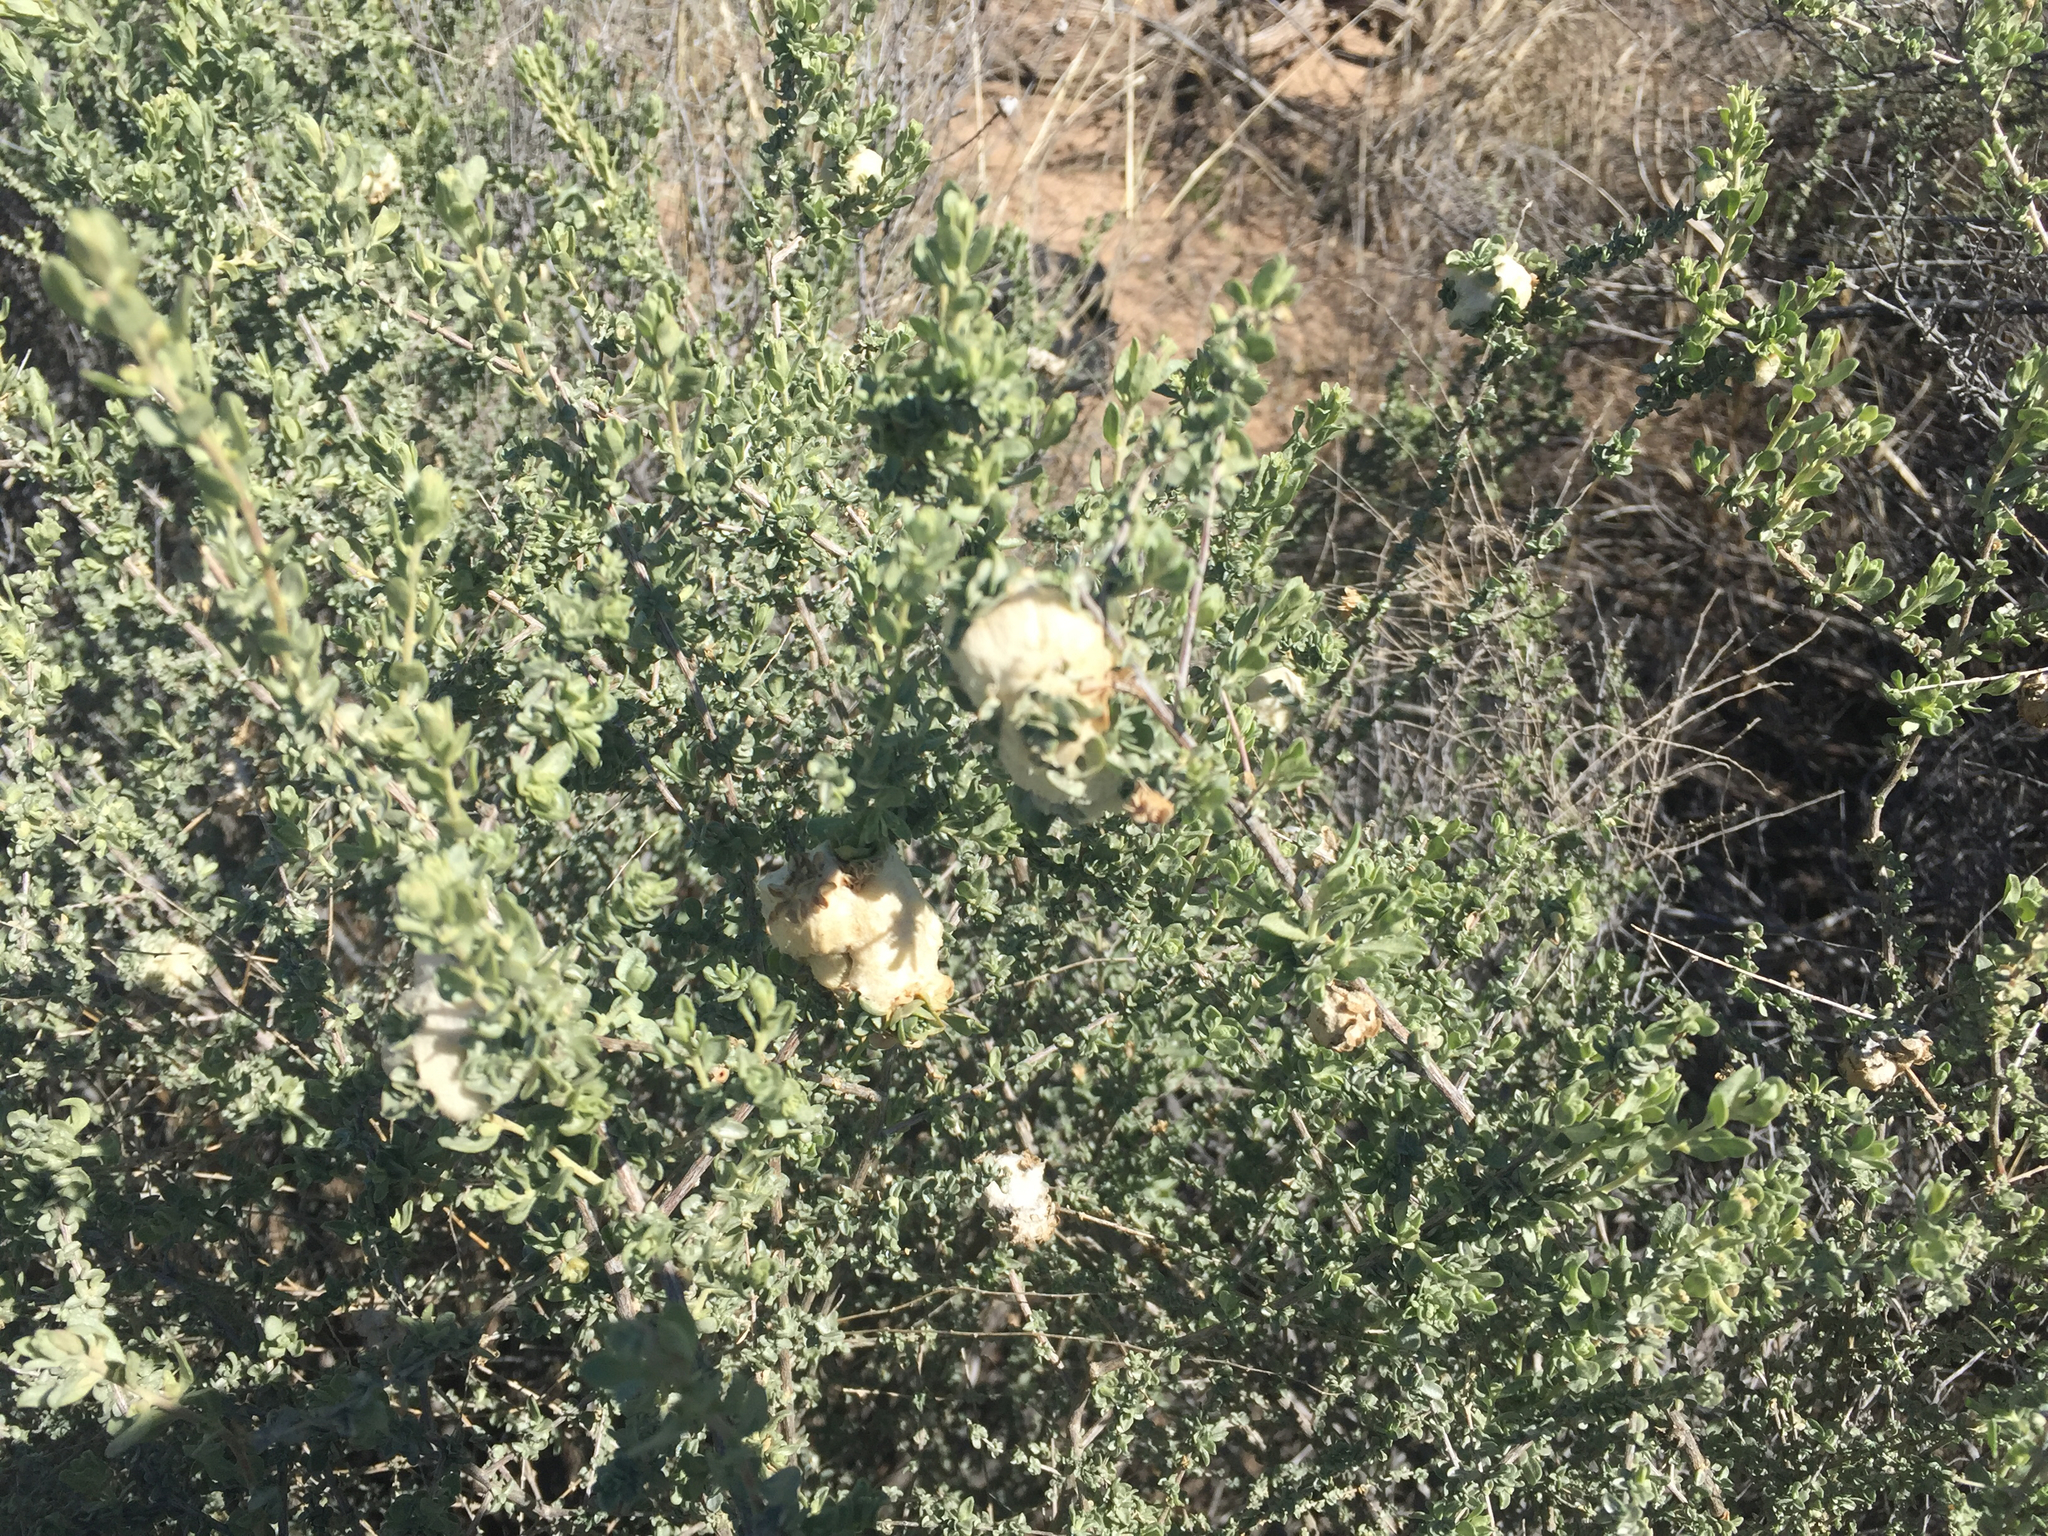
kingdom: Animalia
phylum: Arthropoda
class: Insecta
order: Diptera
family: Cecidomyiidae
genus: Asphondylia
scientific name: Asphondylia floccosa
